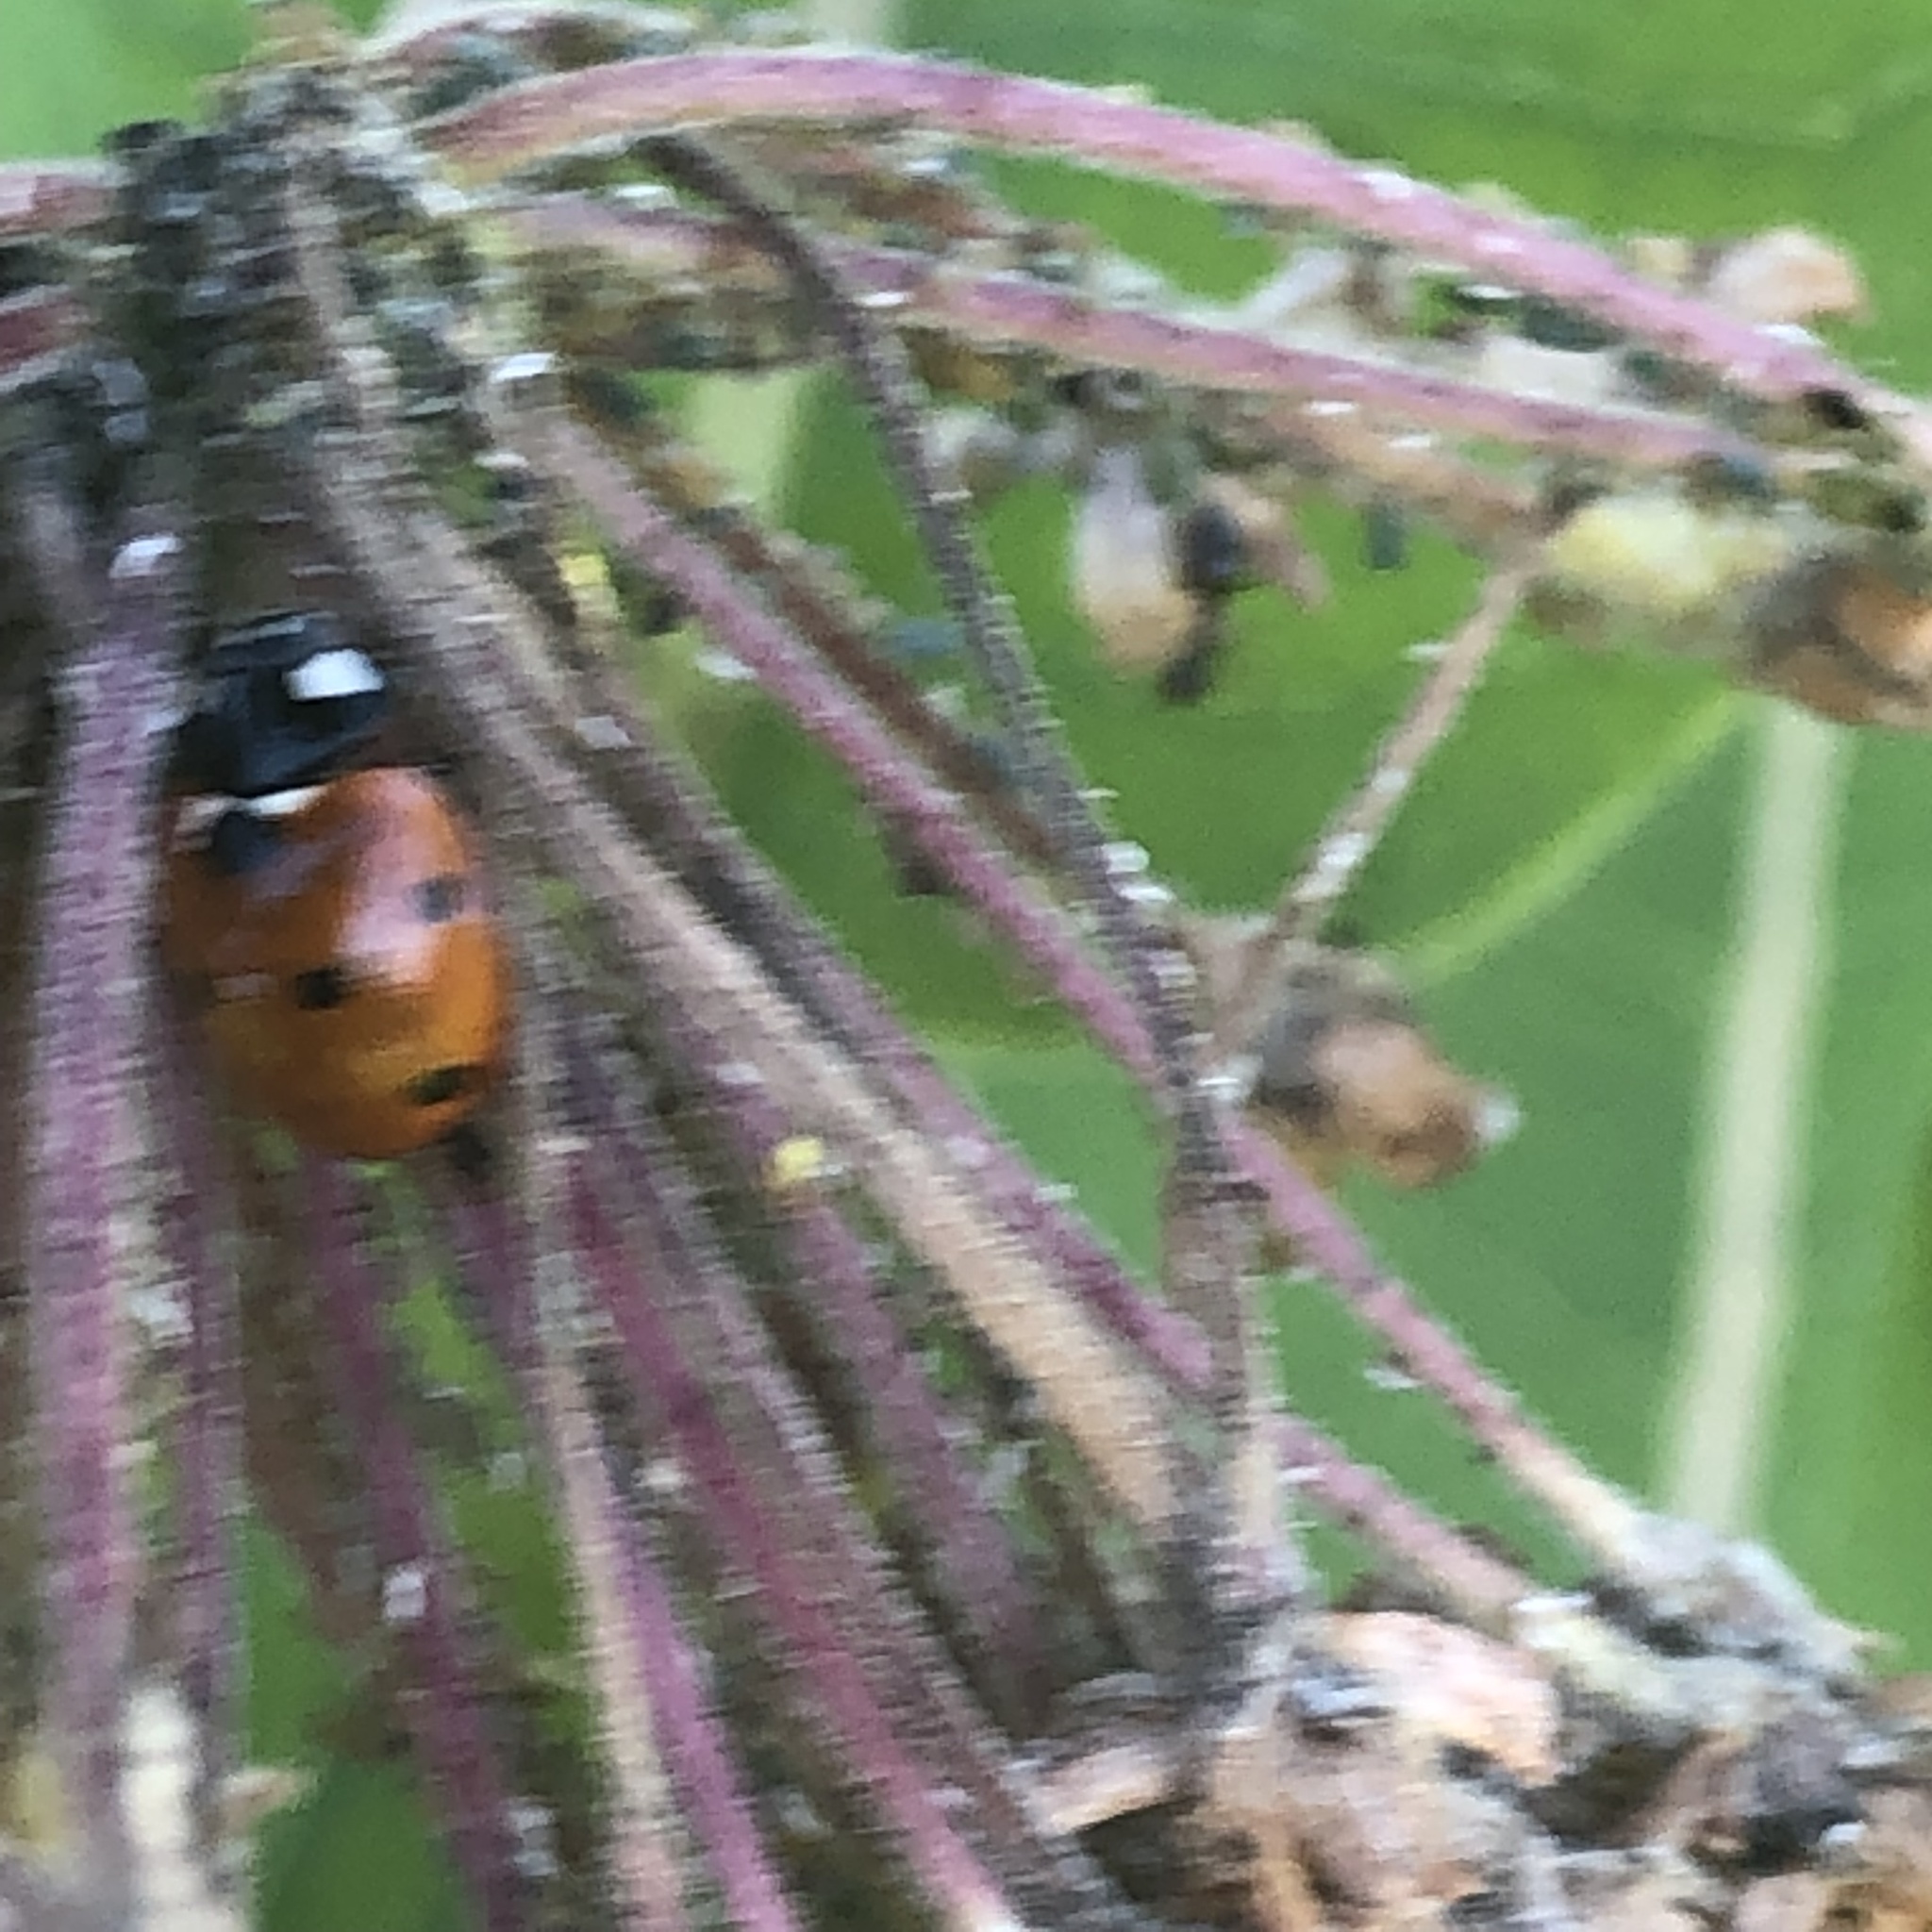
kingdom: Animalia
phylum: Arthropoda
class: Insecta
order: Coleoptera
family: Coccinellidae
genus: Coccinella
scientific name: Coccinella septempunctata
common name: Sevenspotted lady beetle
